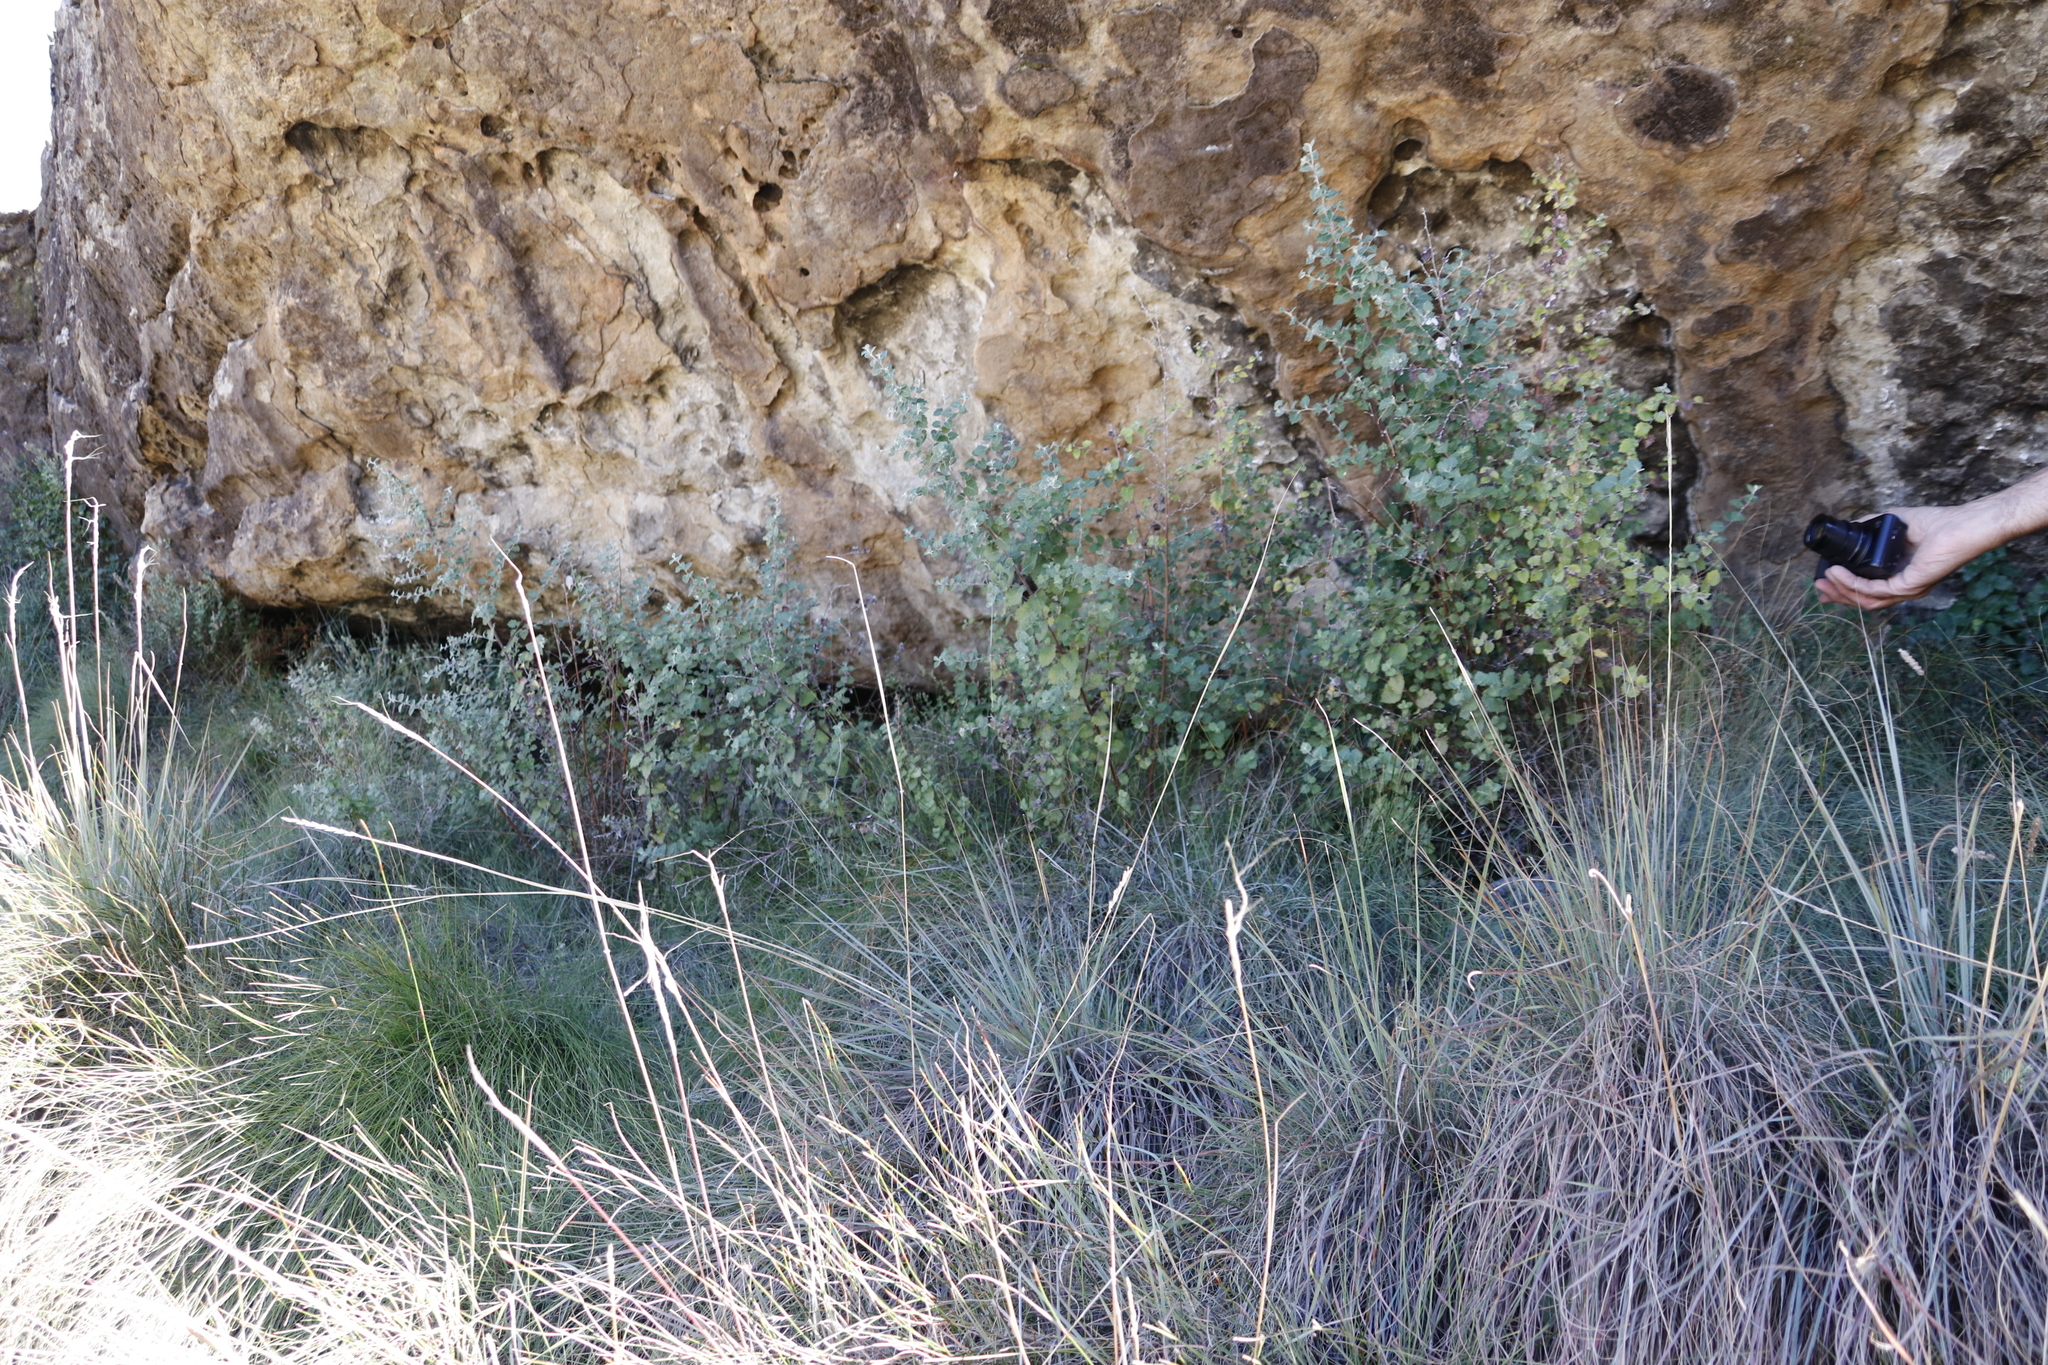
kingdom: Plantae
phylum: Tracheophyta
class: Magnoliopsida
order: Asterales
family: Asteraceae
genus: Printzia
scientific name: Printzia auriculata
